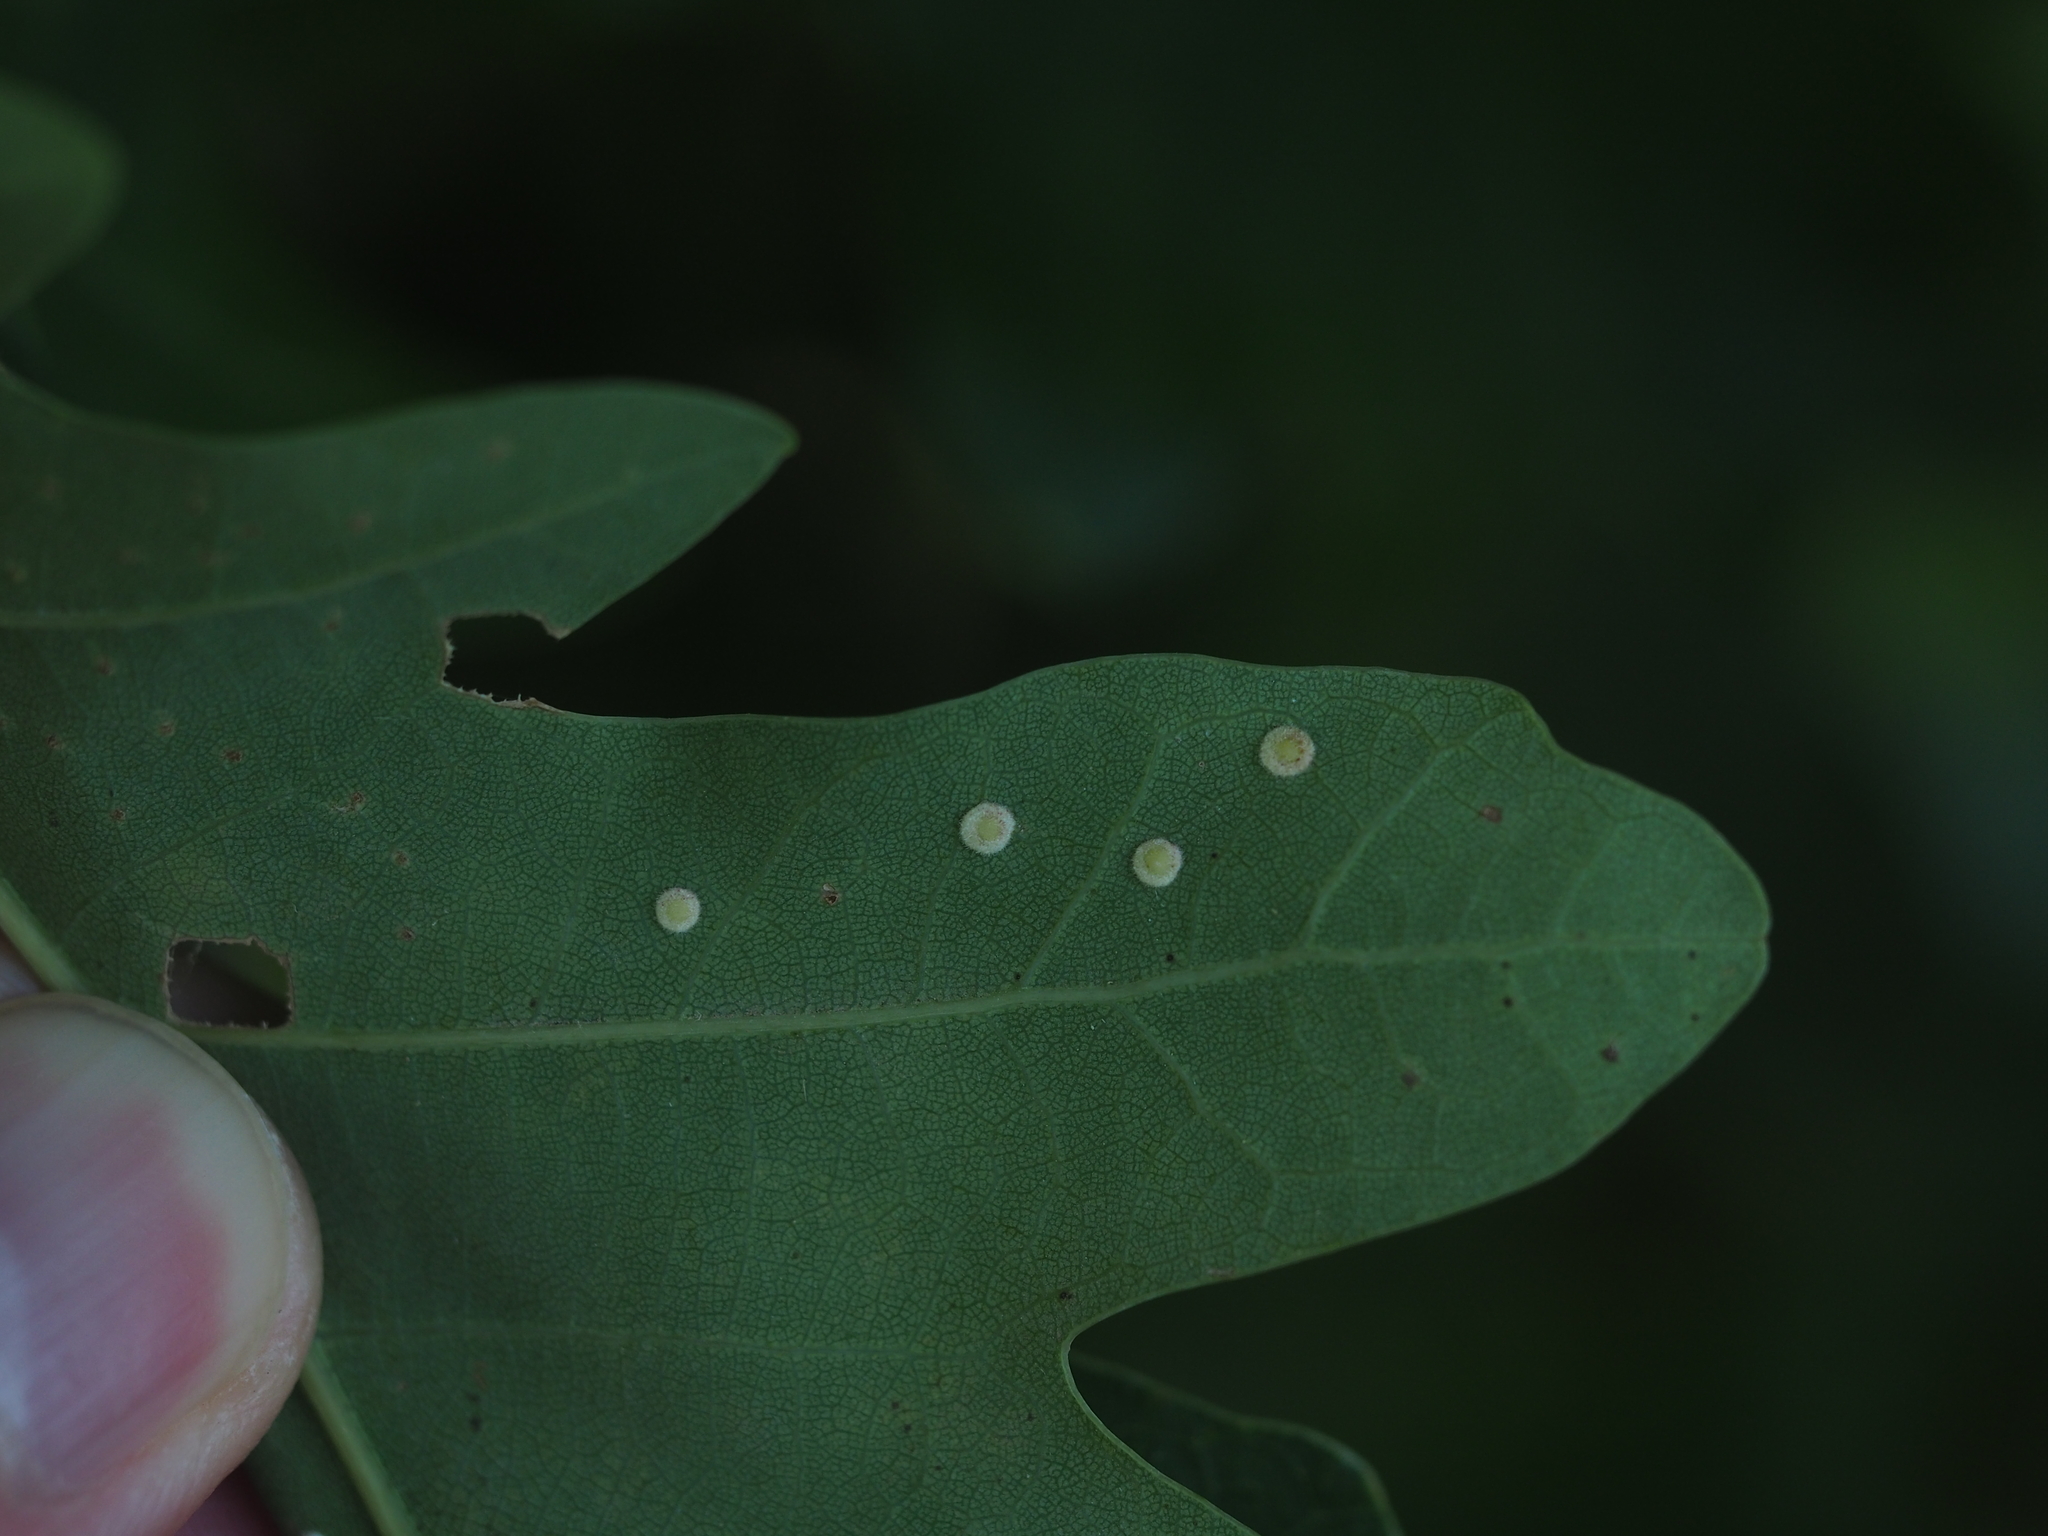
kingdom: Animalia
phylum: Arthropoda
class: Insecta
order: Hymenoptera
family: Cynipidae
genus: Neuroterus
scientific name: Neuroterus quercusbaccarum
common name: Common spangle gall
